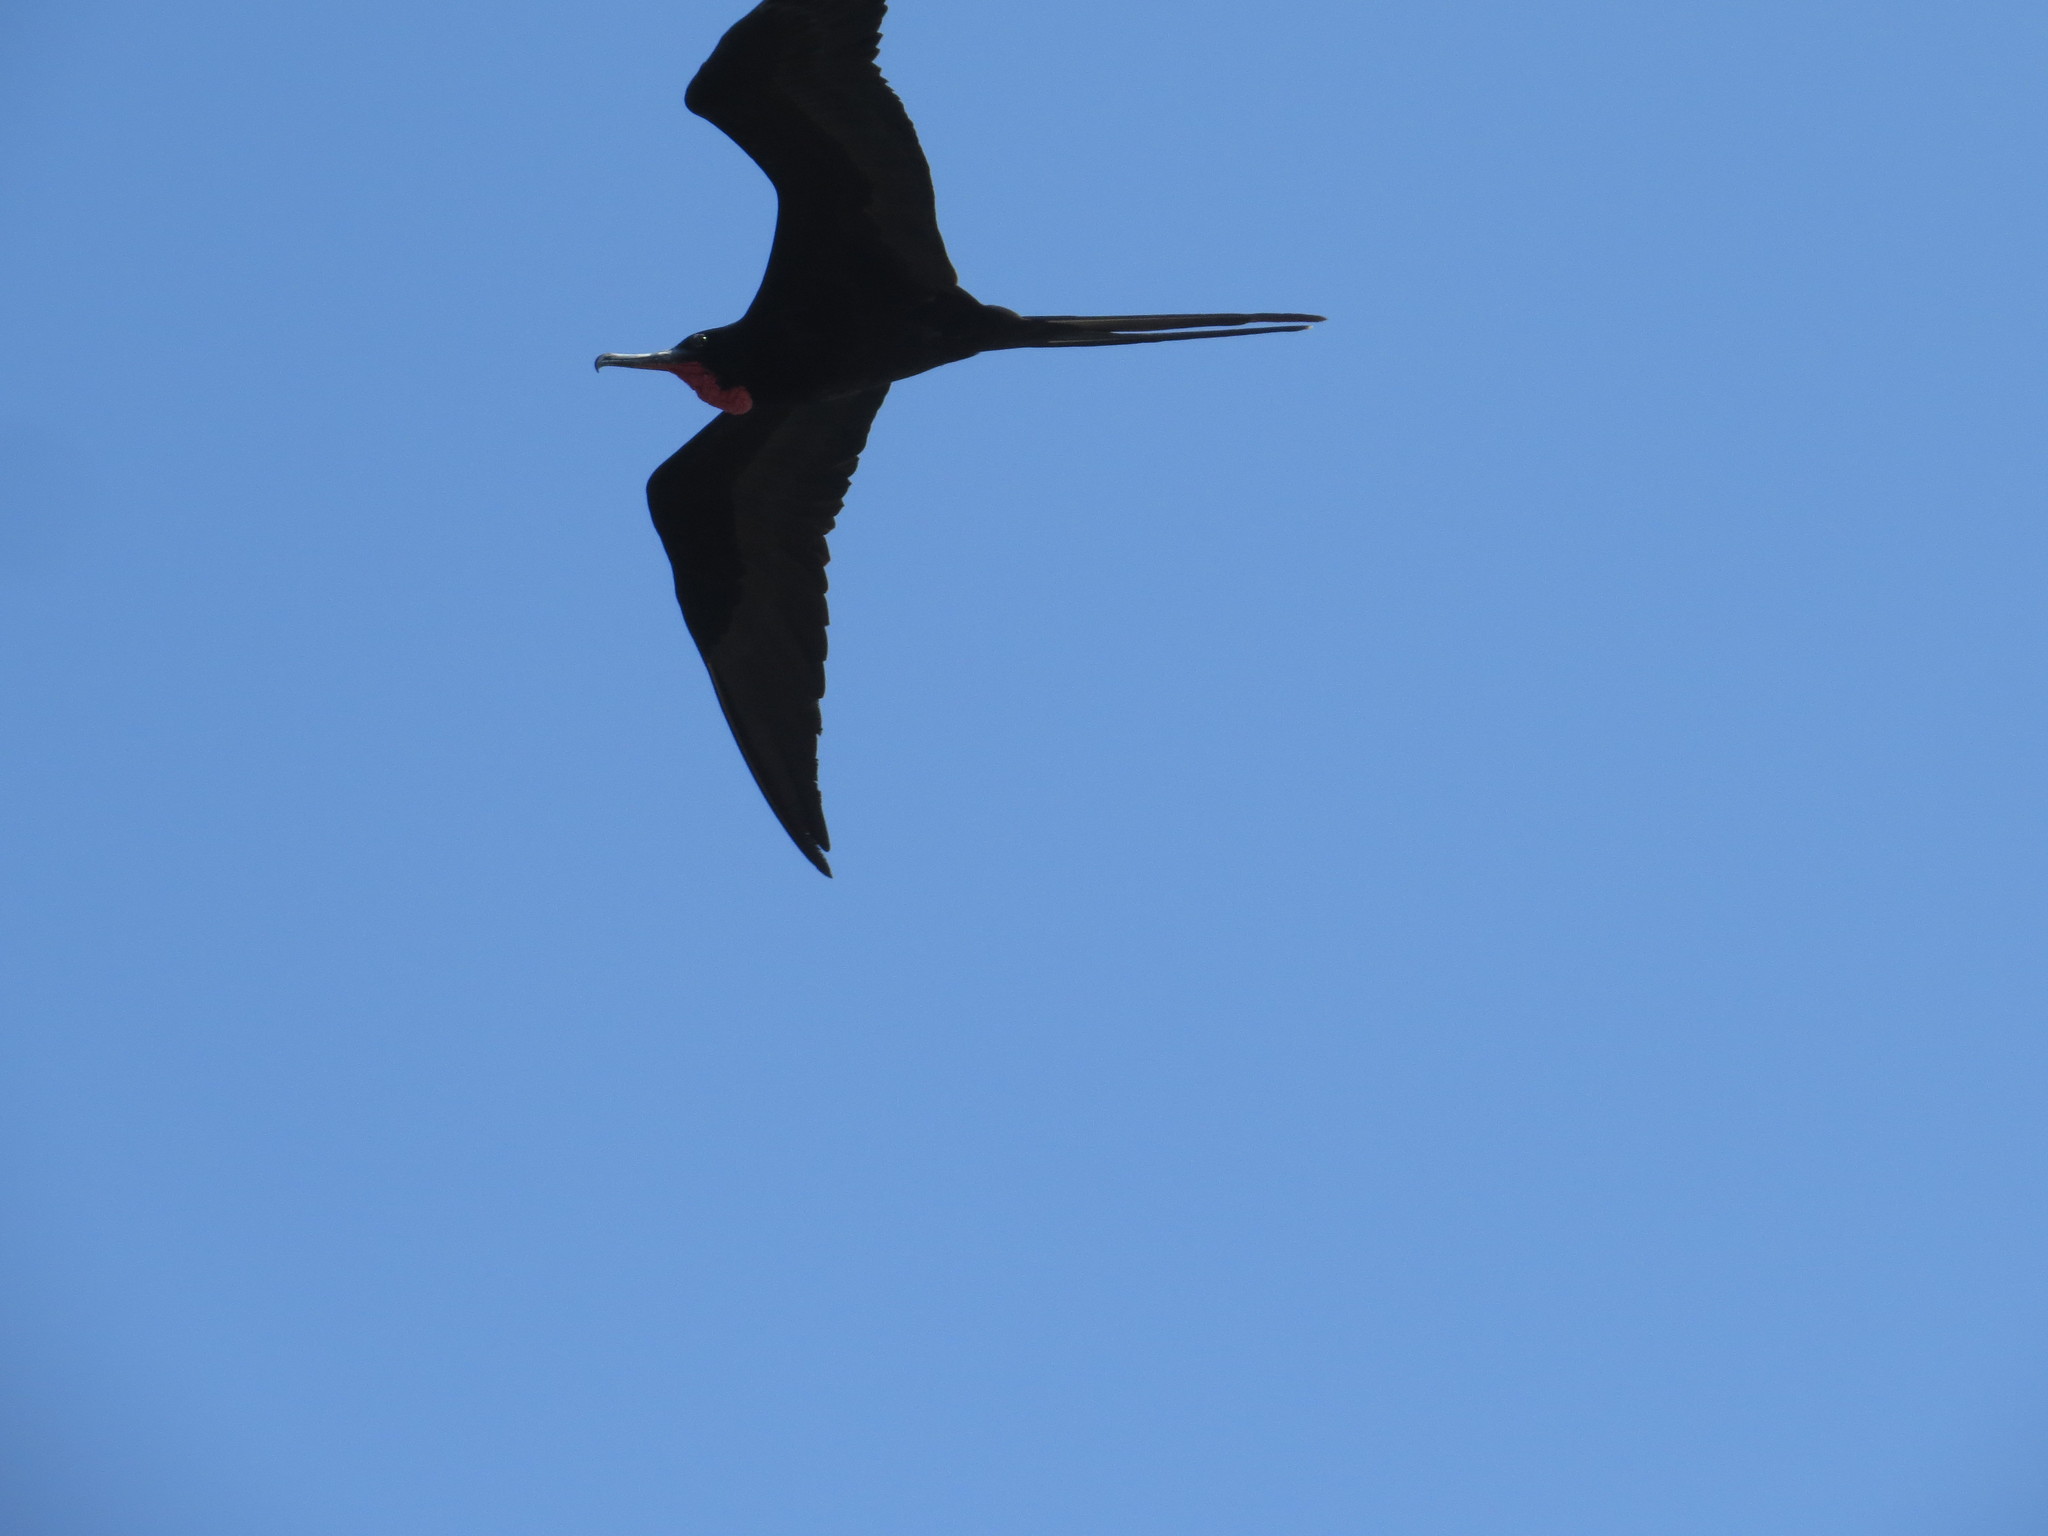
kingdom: Animalia
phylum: Chordata
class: Aves
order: Suliformes
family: Fregatidae
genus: Fregata
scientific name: Fregata magnificens
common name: Magnificent frigatebird
